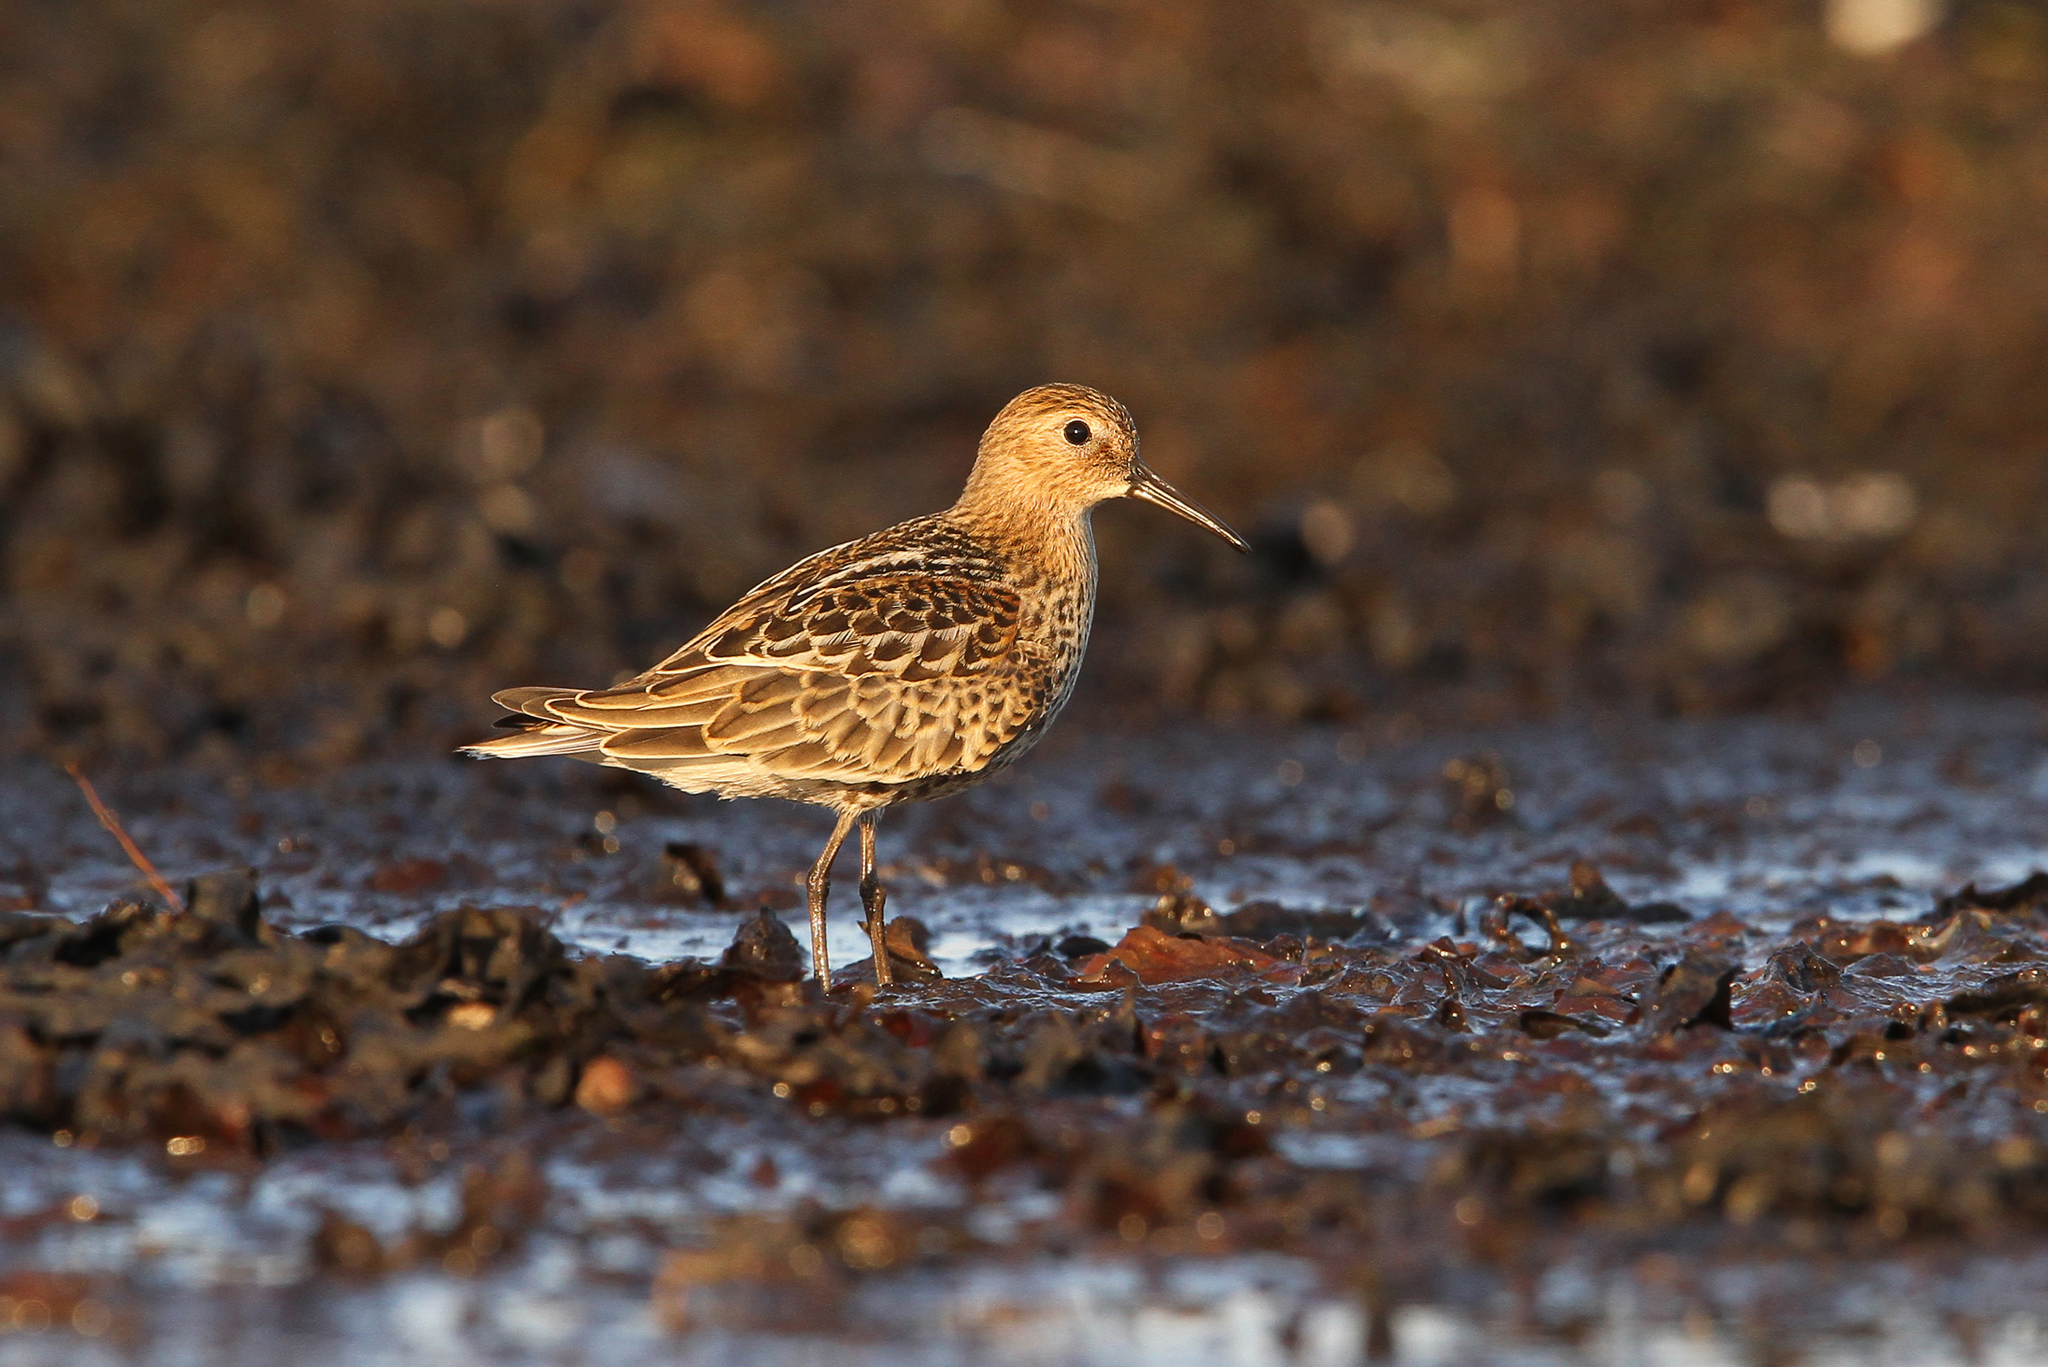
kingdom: Animalia
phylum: Chordata
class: Aves
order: Charadriiformes
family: Scolopacidae
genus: Calidris
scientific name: Calidris alpina
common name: Dunlin
